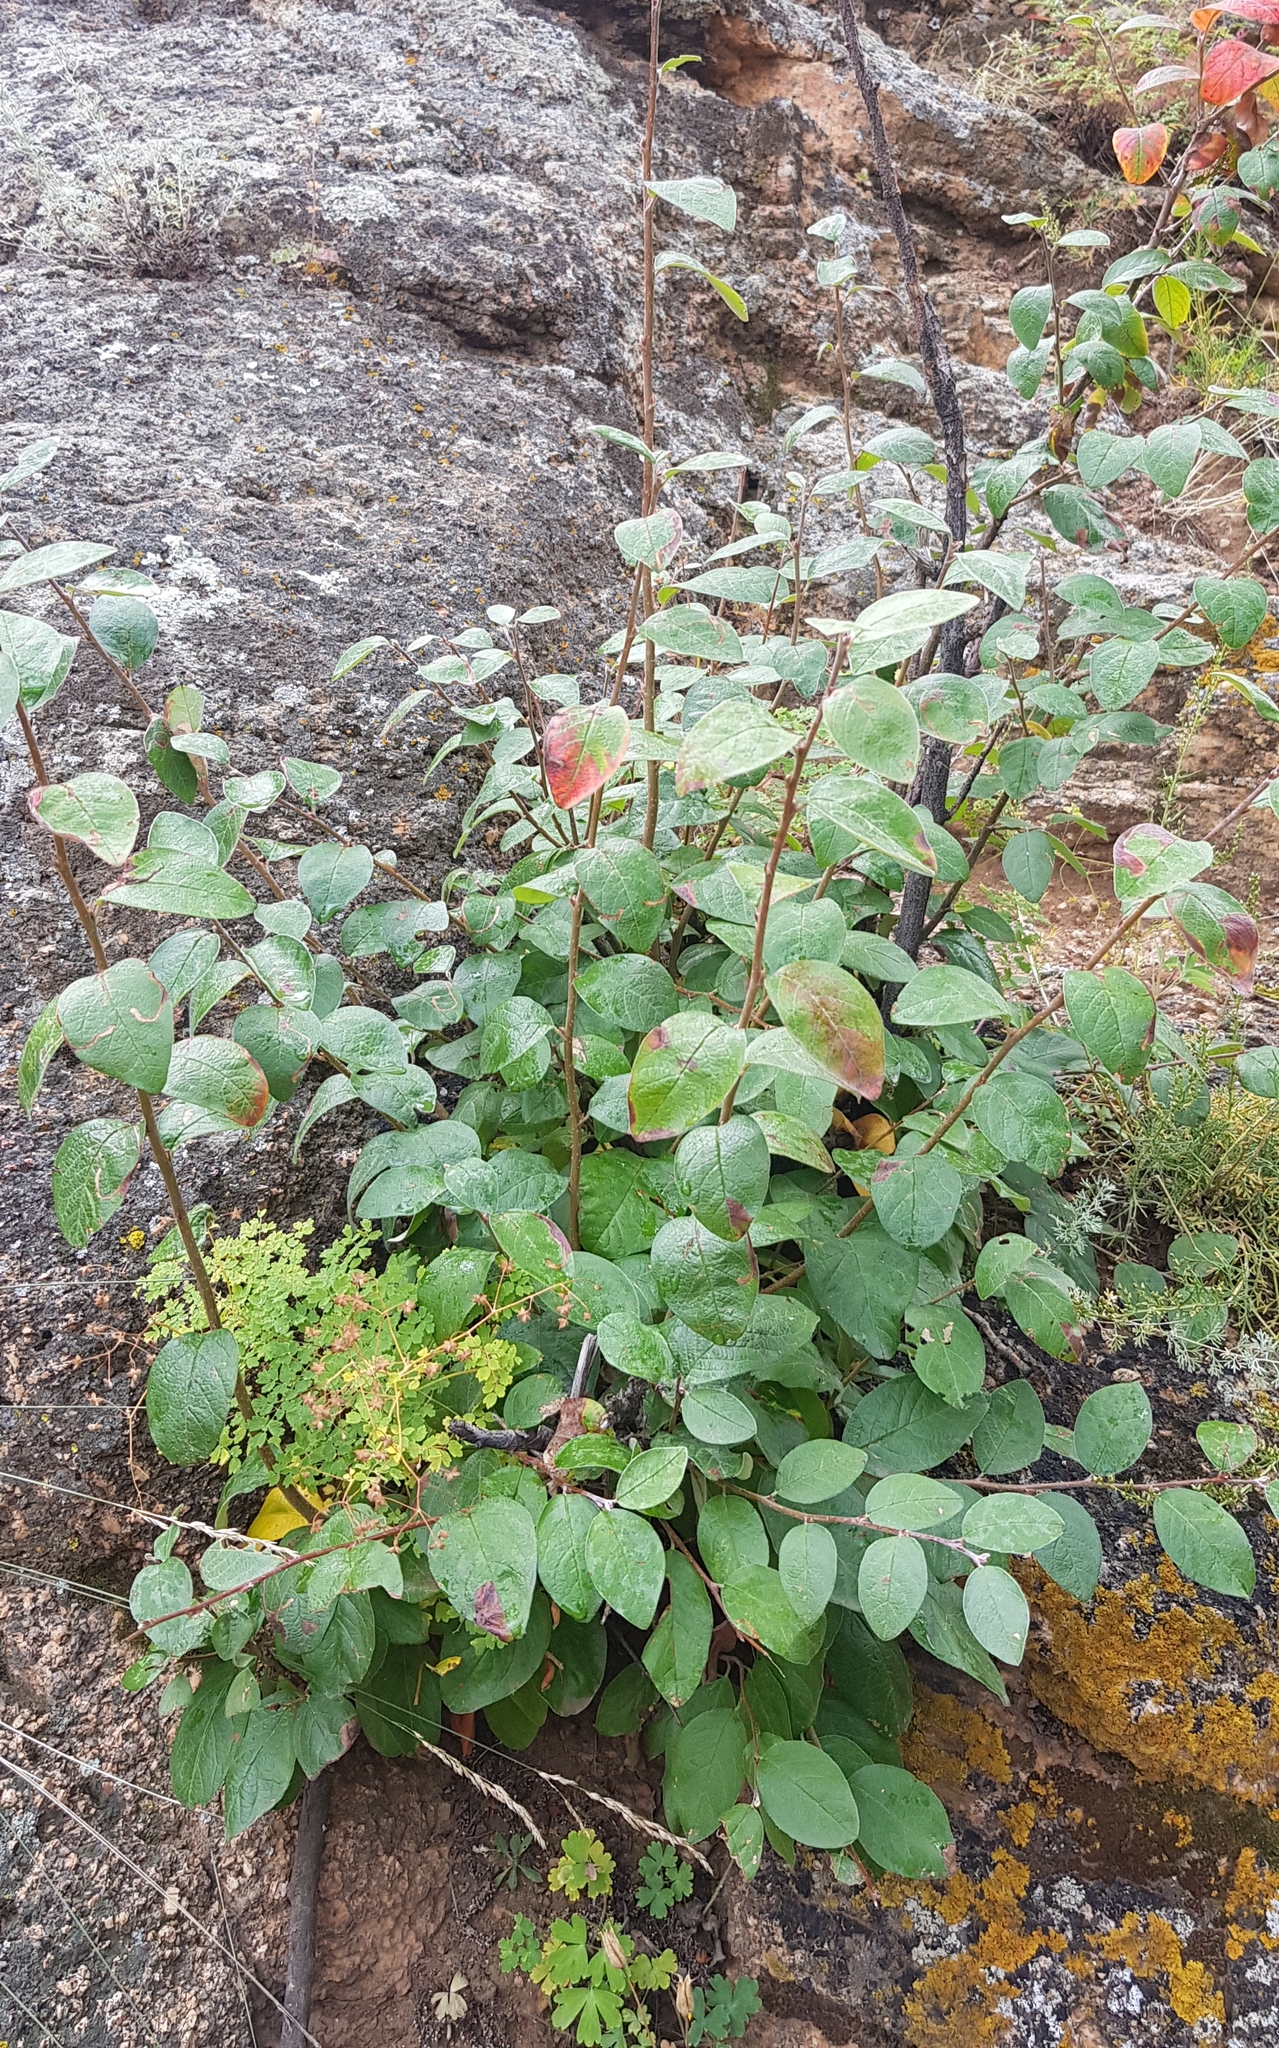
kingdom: Plantae
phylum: Tracheophyta
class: Magnoliopsida
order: Rosales
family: Rosaceae
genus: Cotoneaster
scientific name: Cotoneaster melanocarpus
